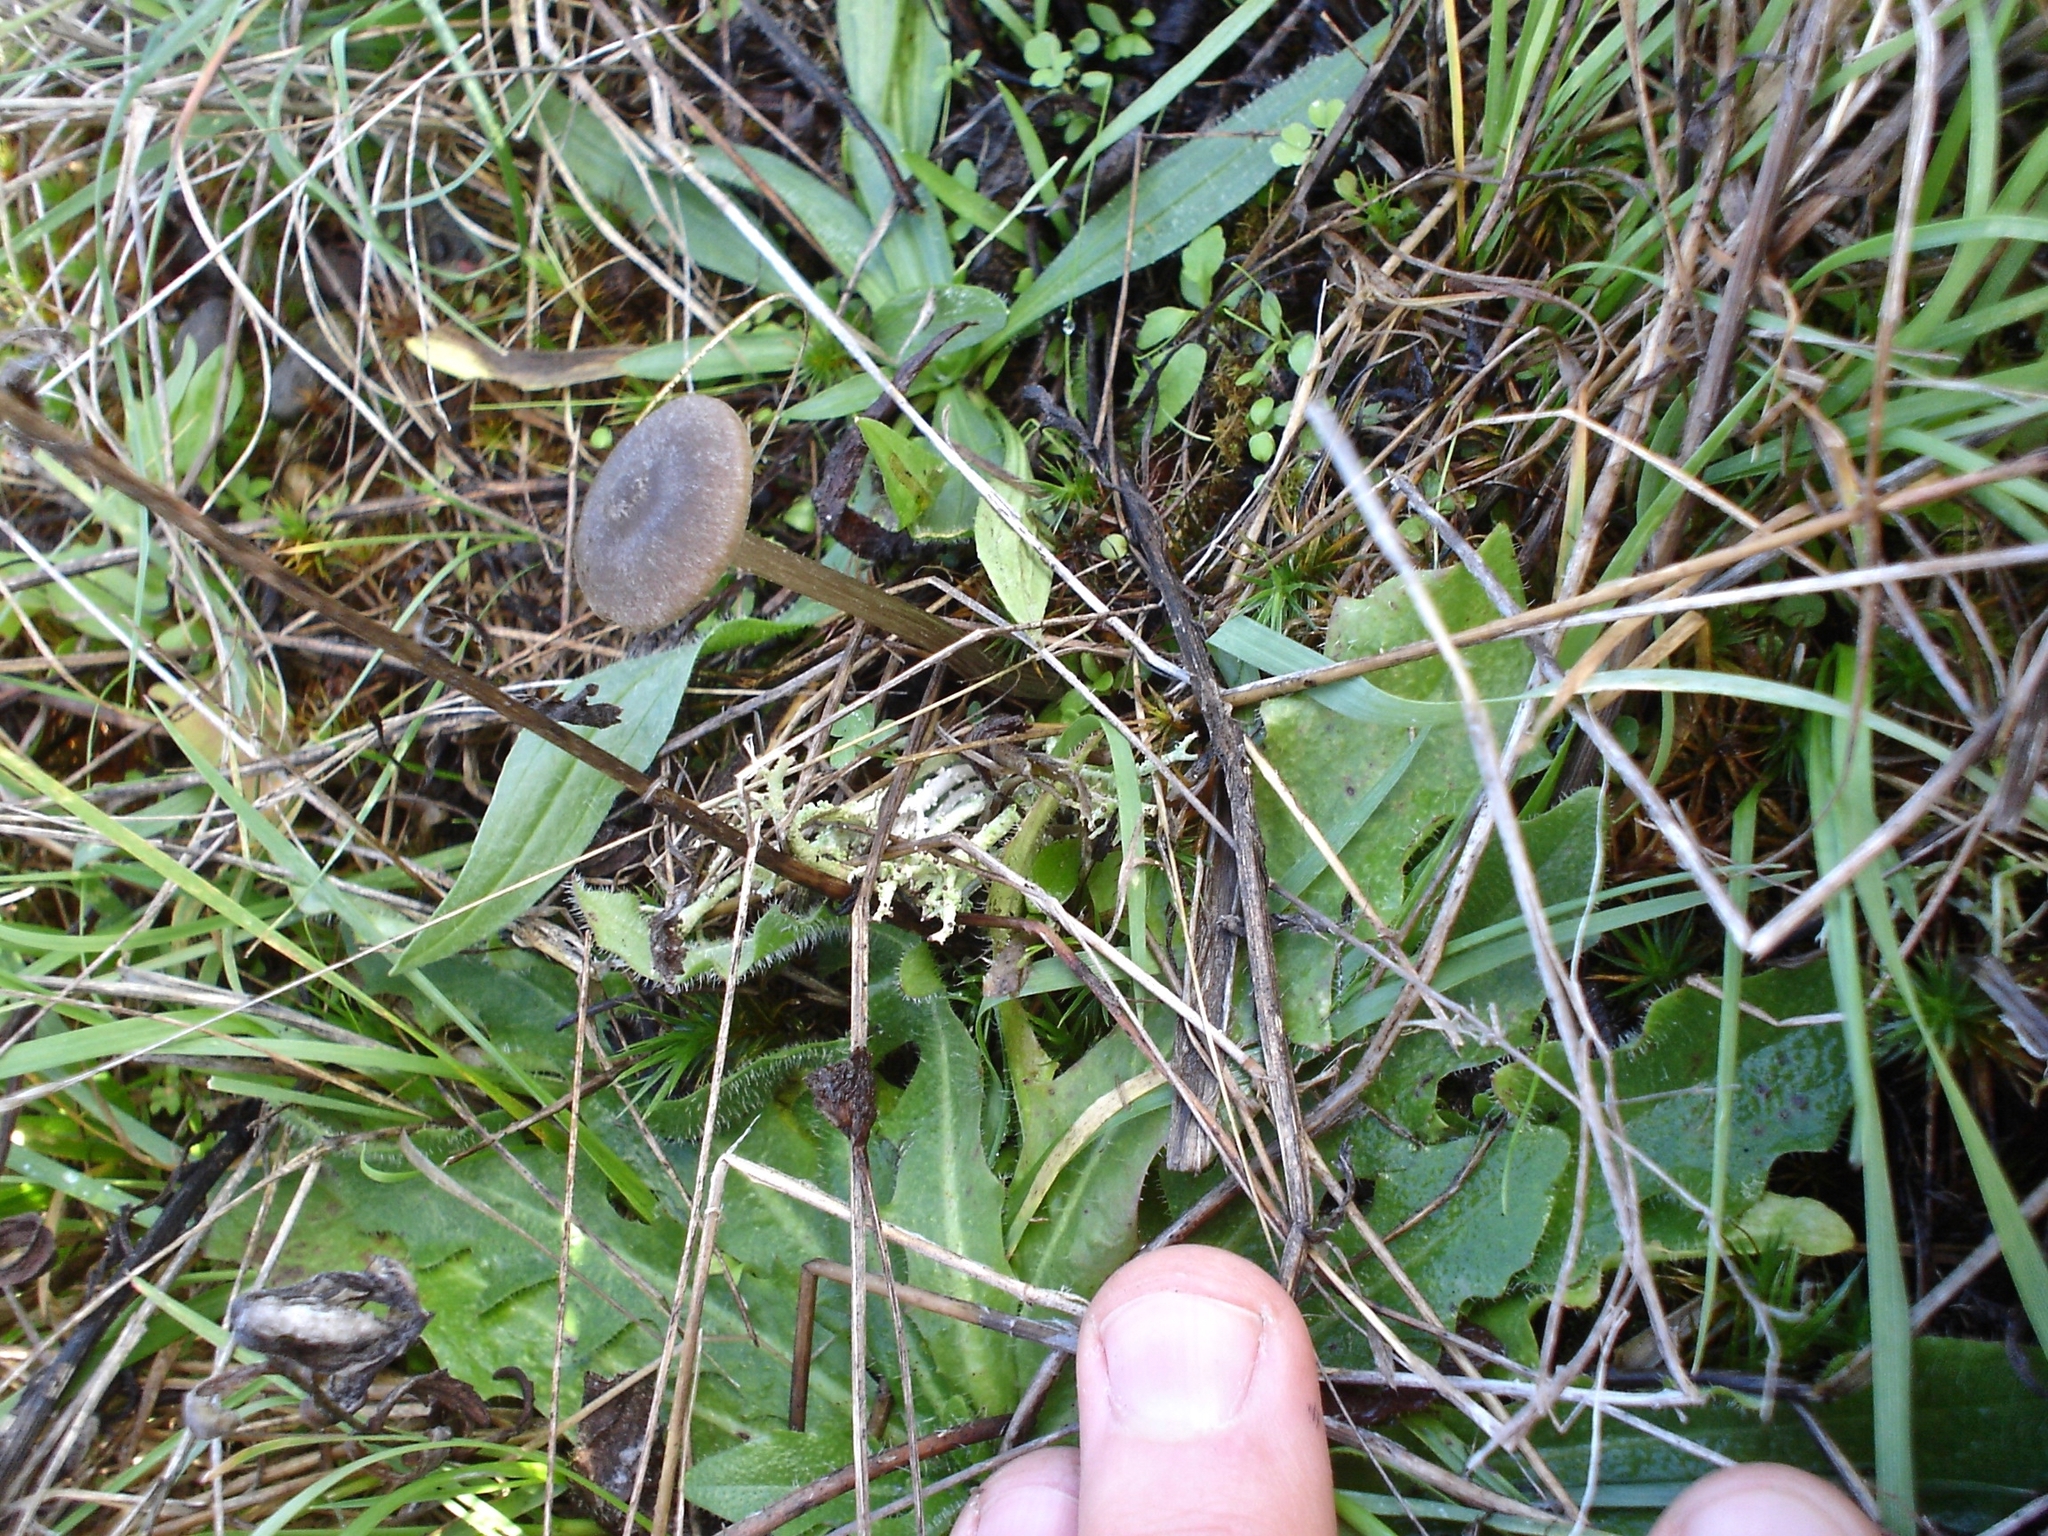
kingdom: Fungi
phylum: Basidiomycota
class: Agaricomycetes
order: Agaricales
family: Entolomataceae
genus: Entoloma
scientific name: Entoloma edulis
